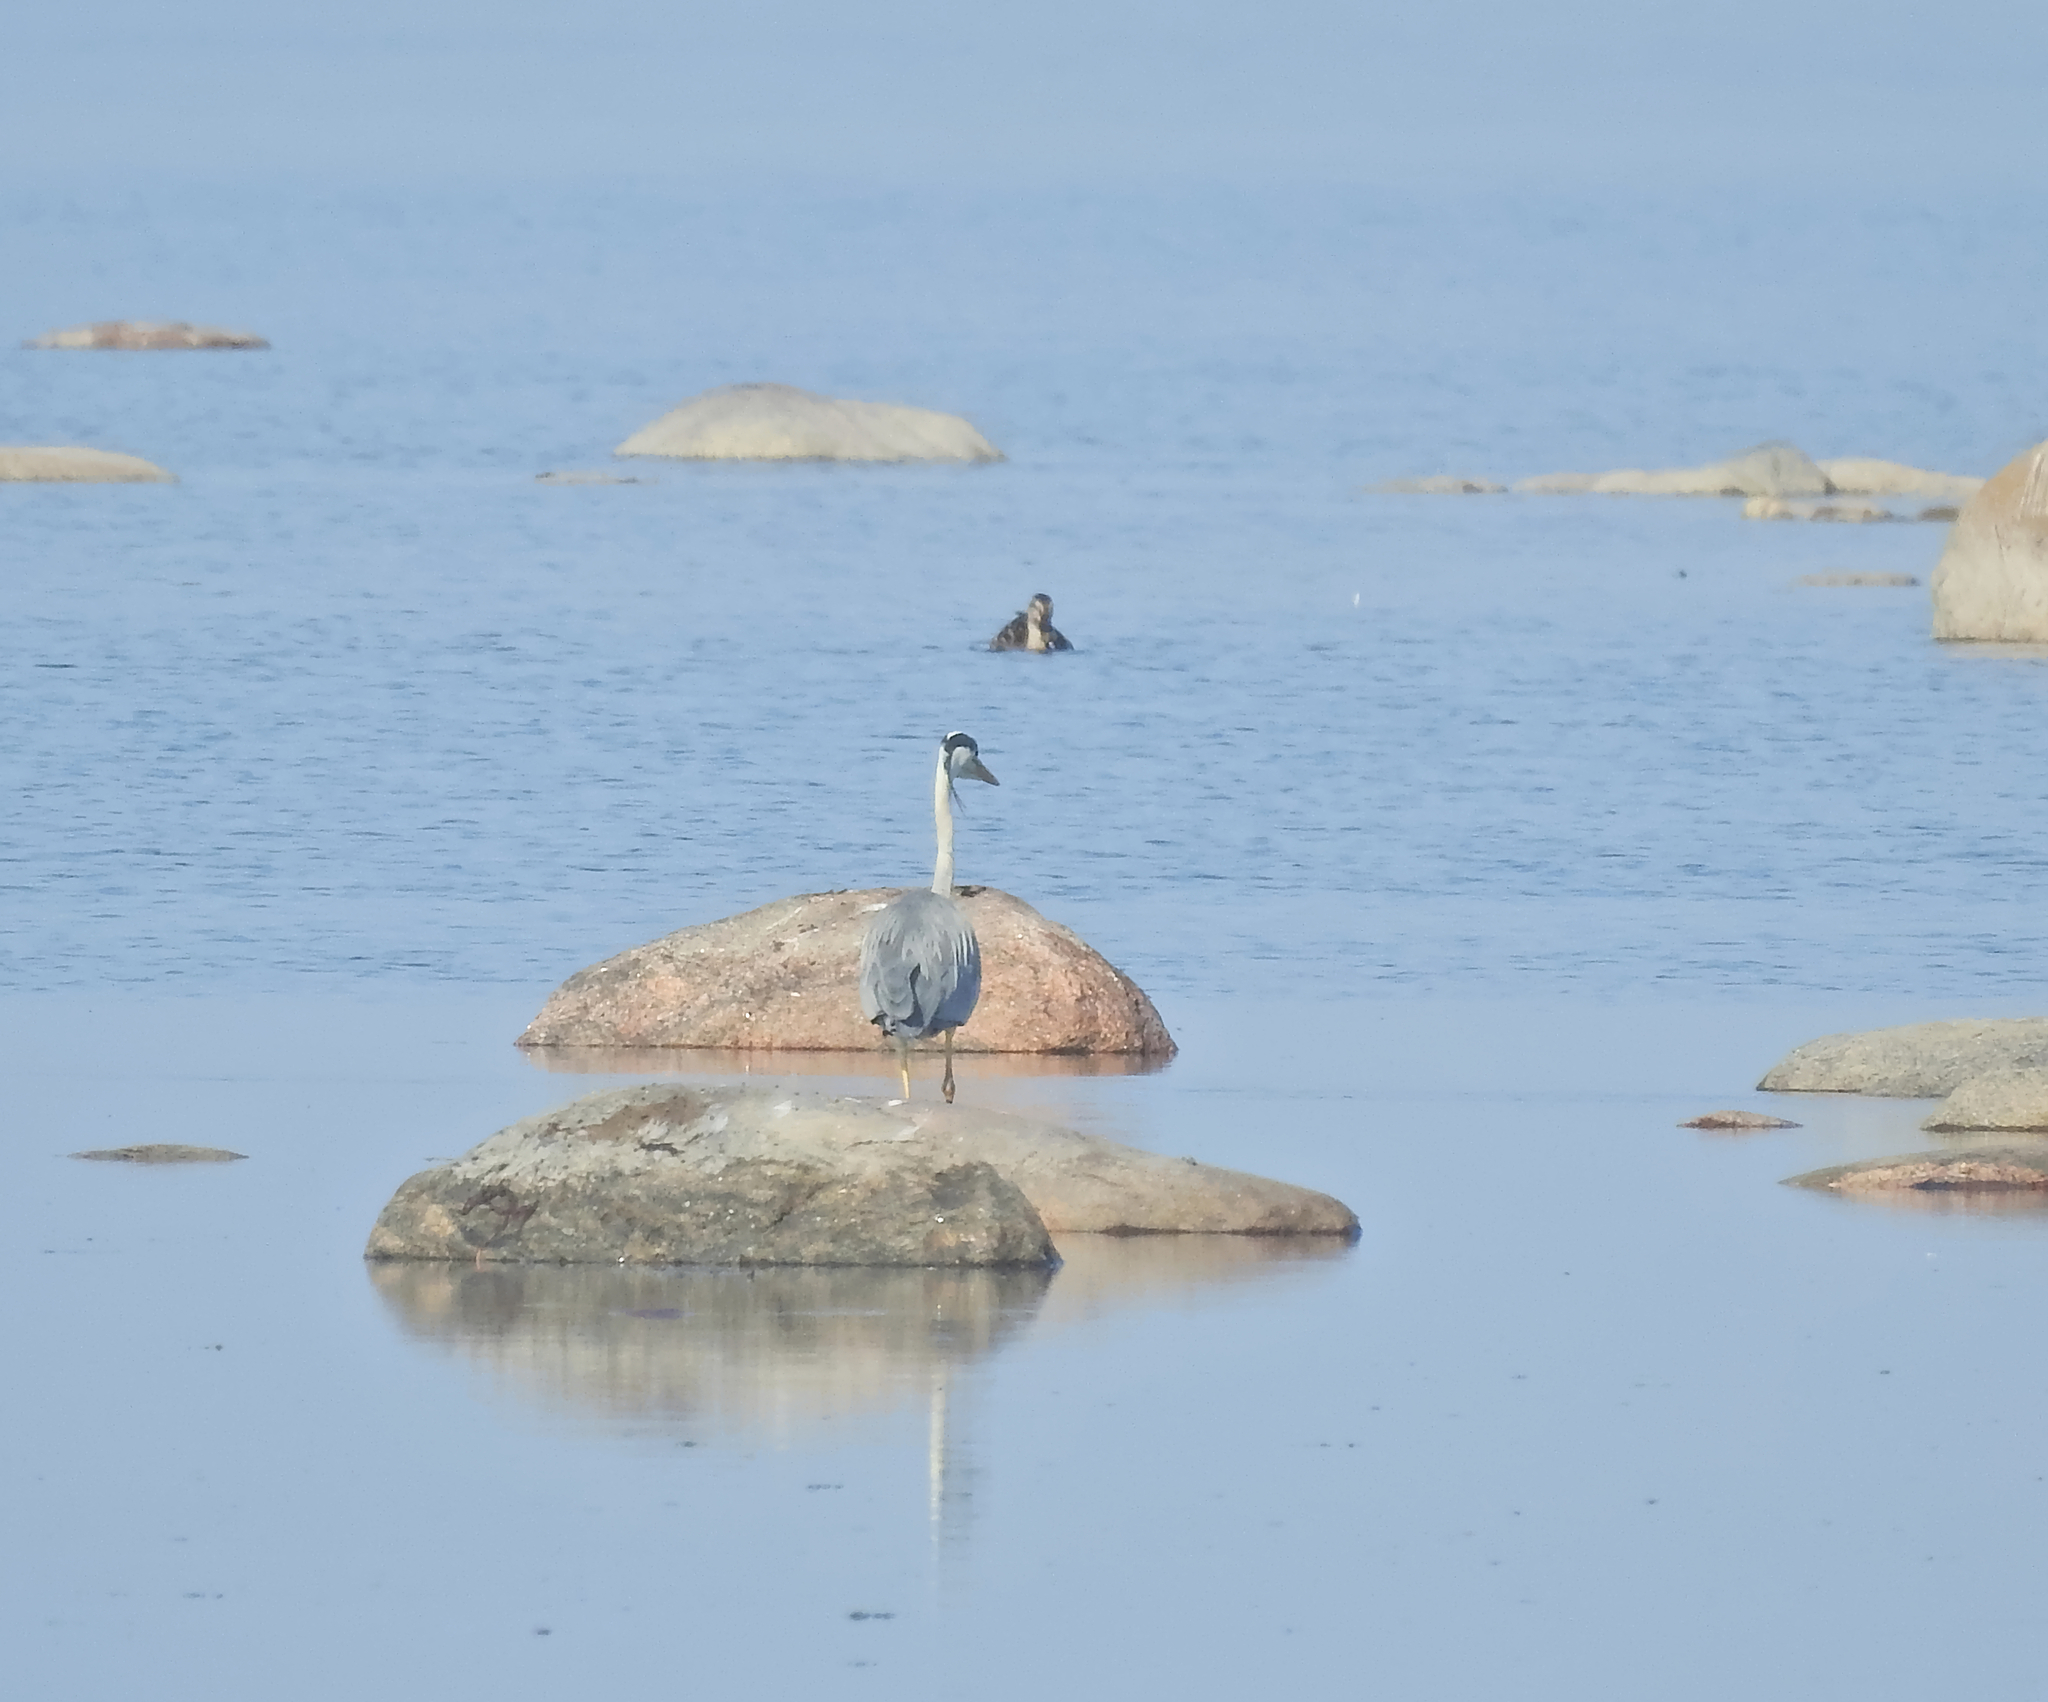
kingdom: Animalia
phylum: Chordata
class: Aves
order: Pelecaniformes
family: Ardeidae
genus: Ardea
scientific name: Ardea cinerea
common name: Grey heron
